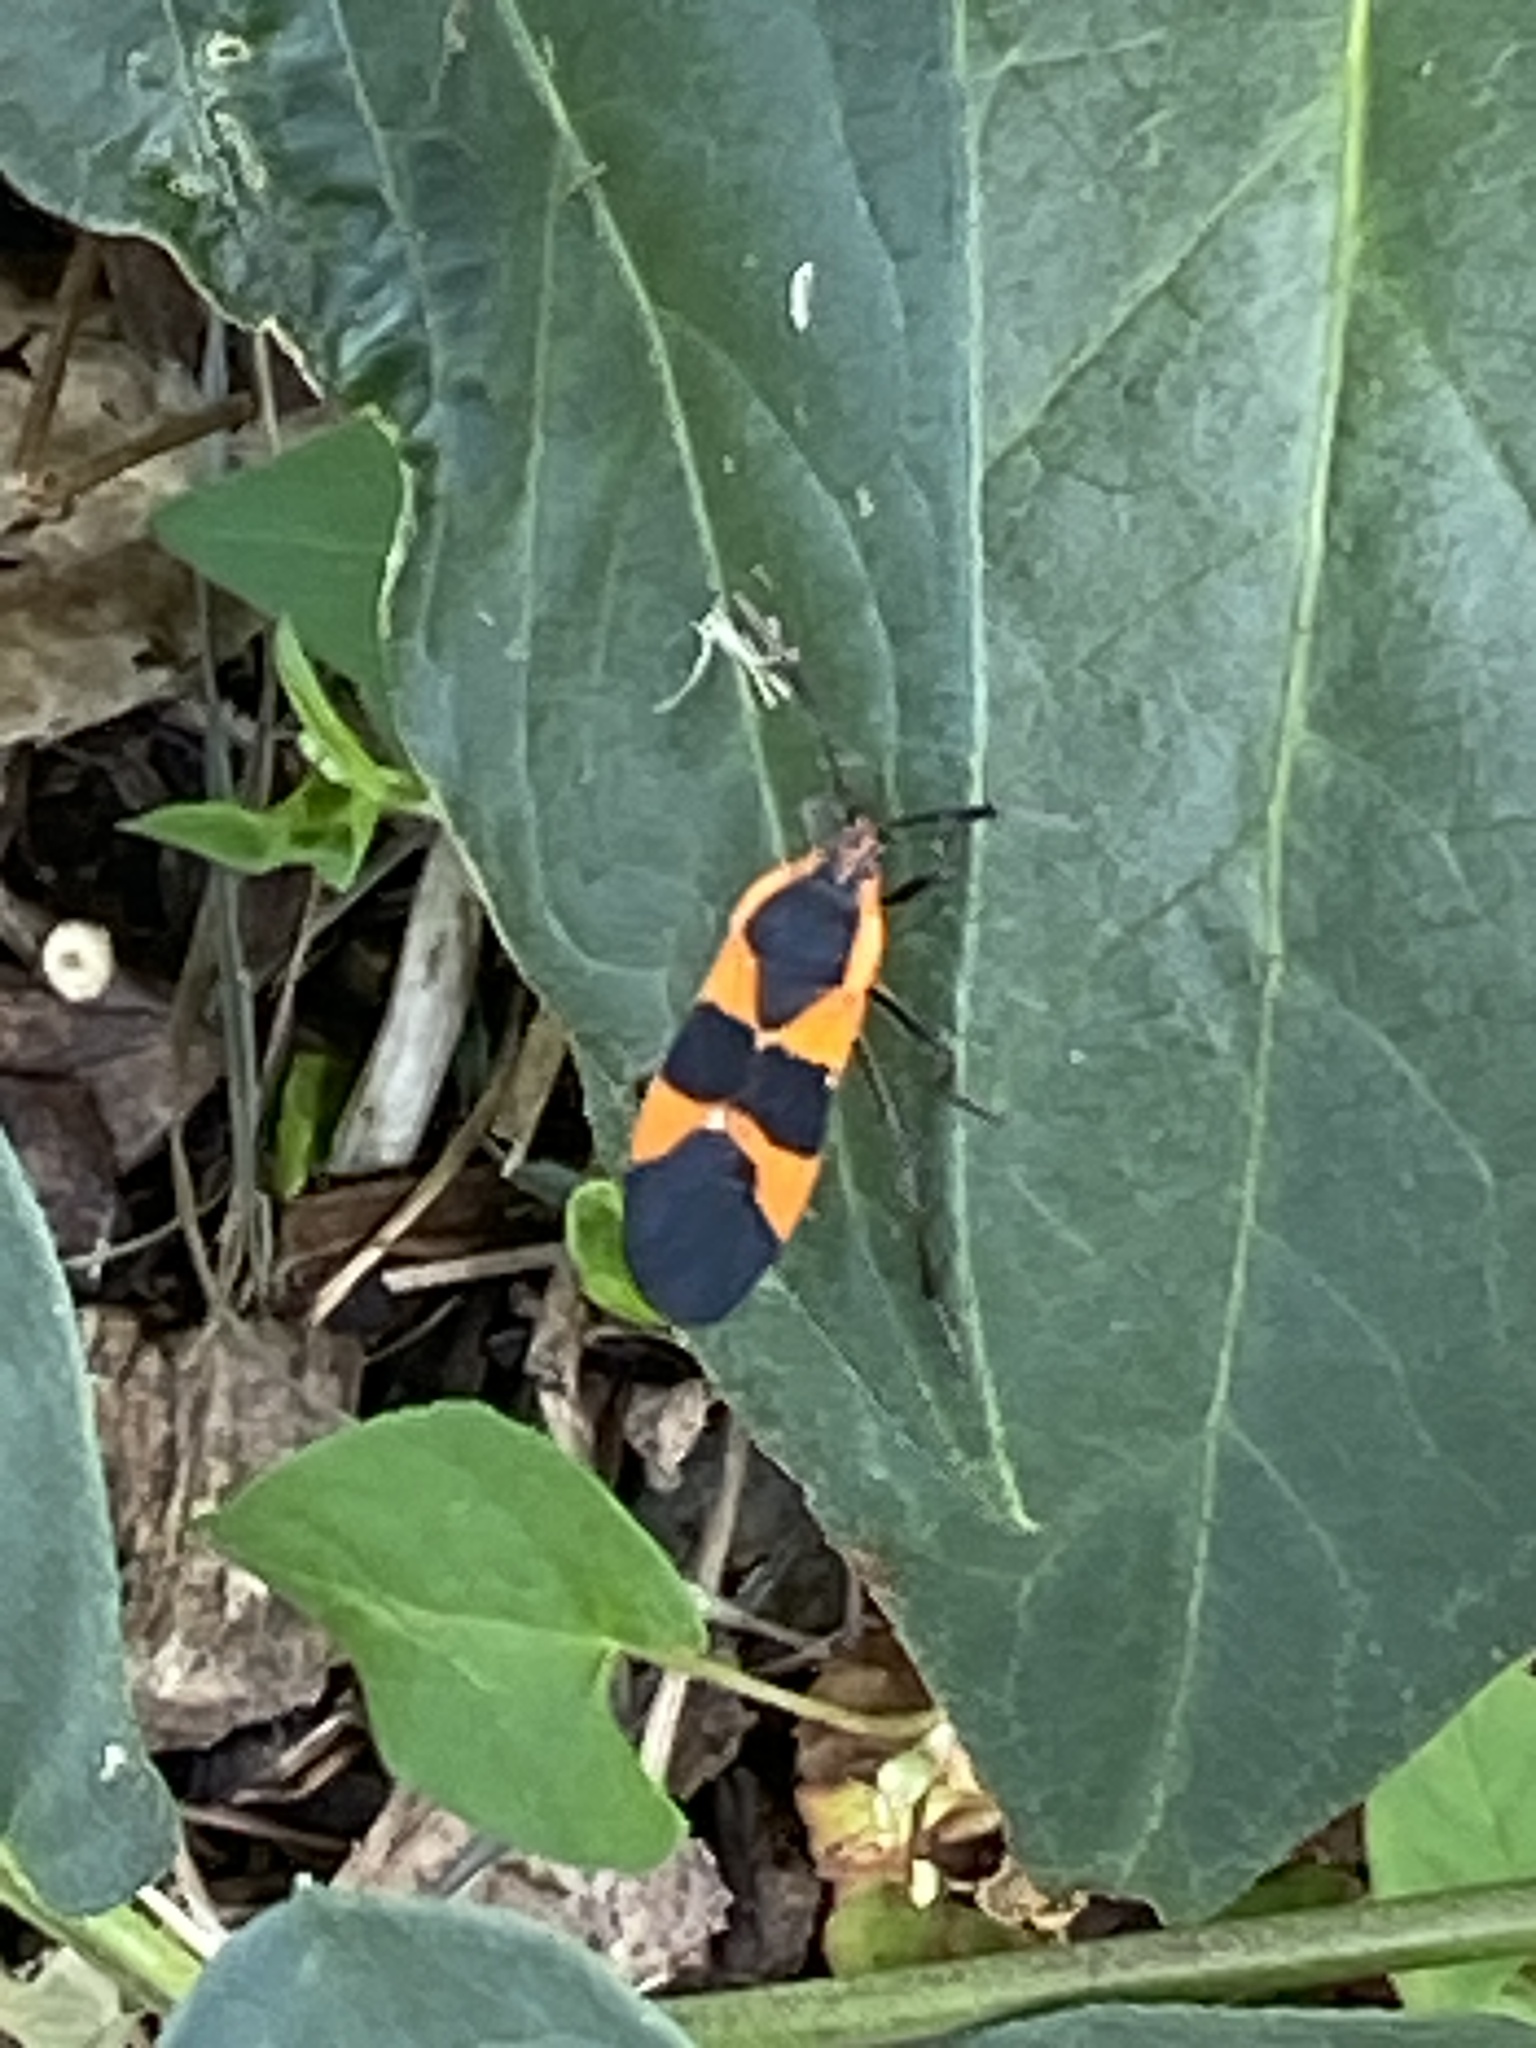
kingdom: Animalia
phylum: Arthropoda
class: Insecta
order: Hemiptera
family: Lygaeidae
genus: Oncopeltus
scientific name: Oncopeltus fasciatus
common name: Large milkweed bug
